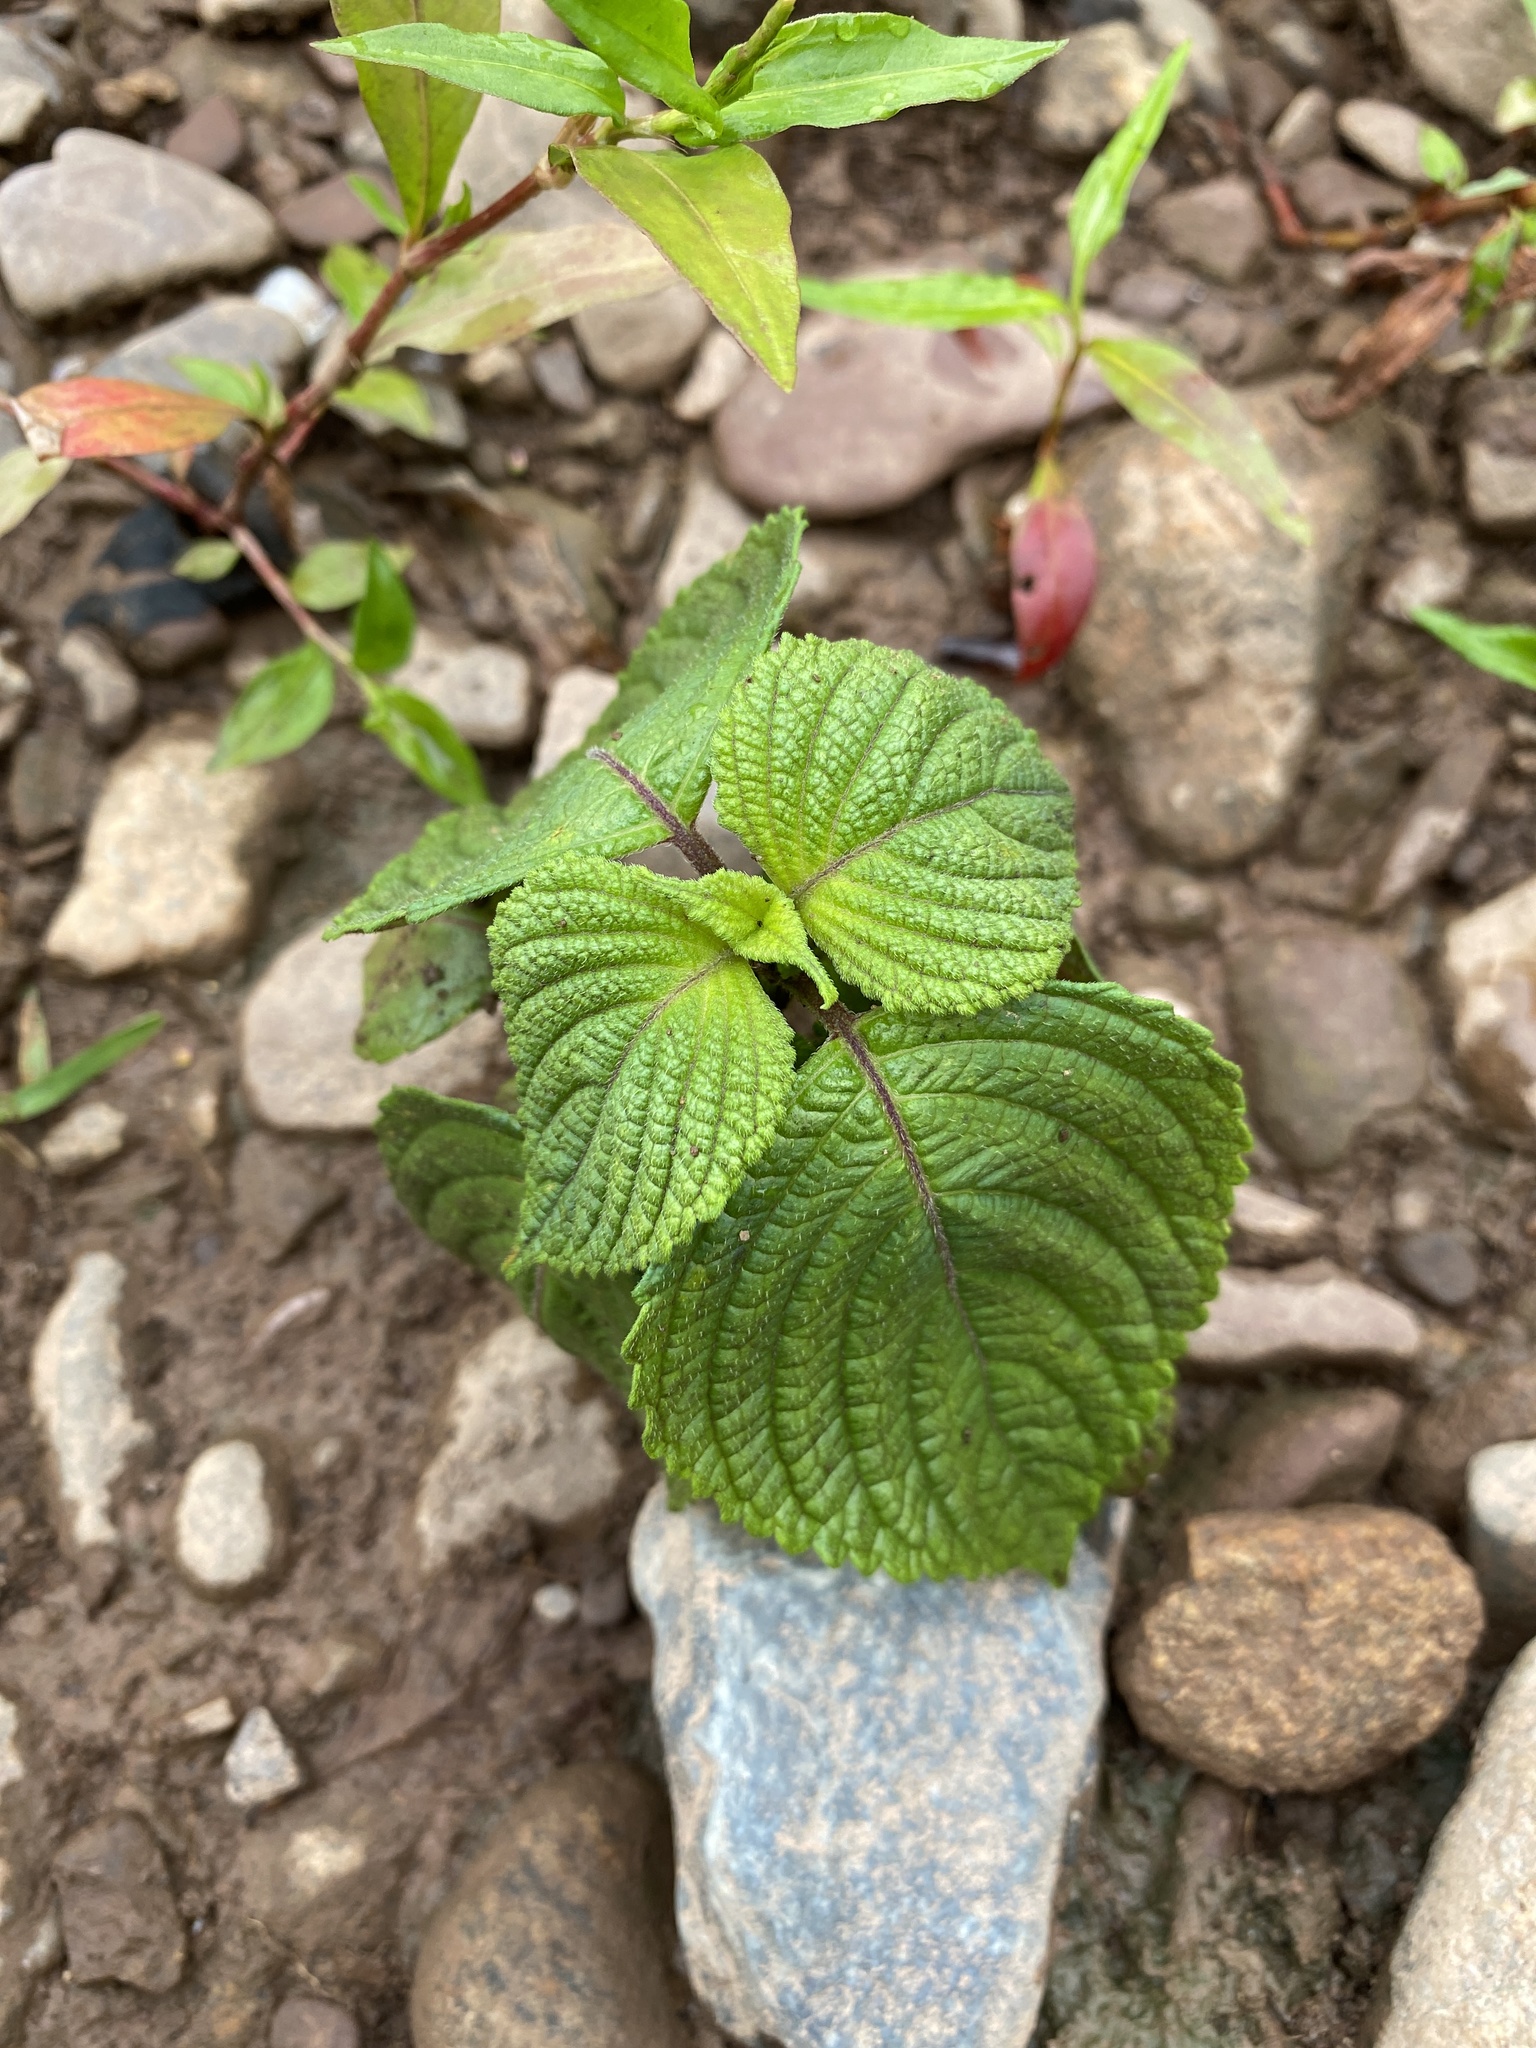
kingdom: Plantae
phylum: Tracheophyta
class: Magnoliopsida
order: Lamiales
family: Lamiaceae
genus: Perilla
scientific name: Perilla frutescens
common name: Perilla
